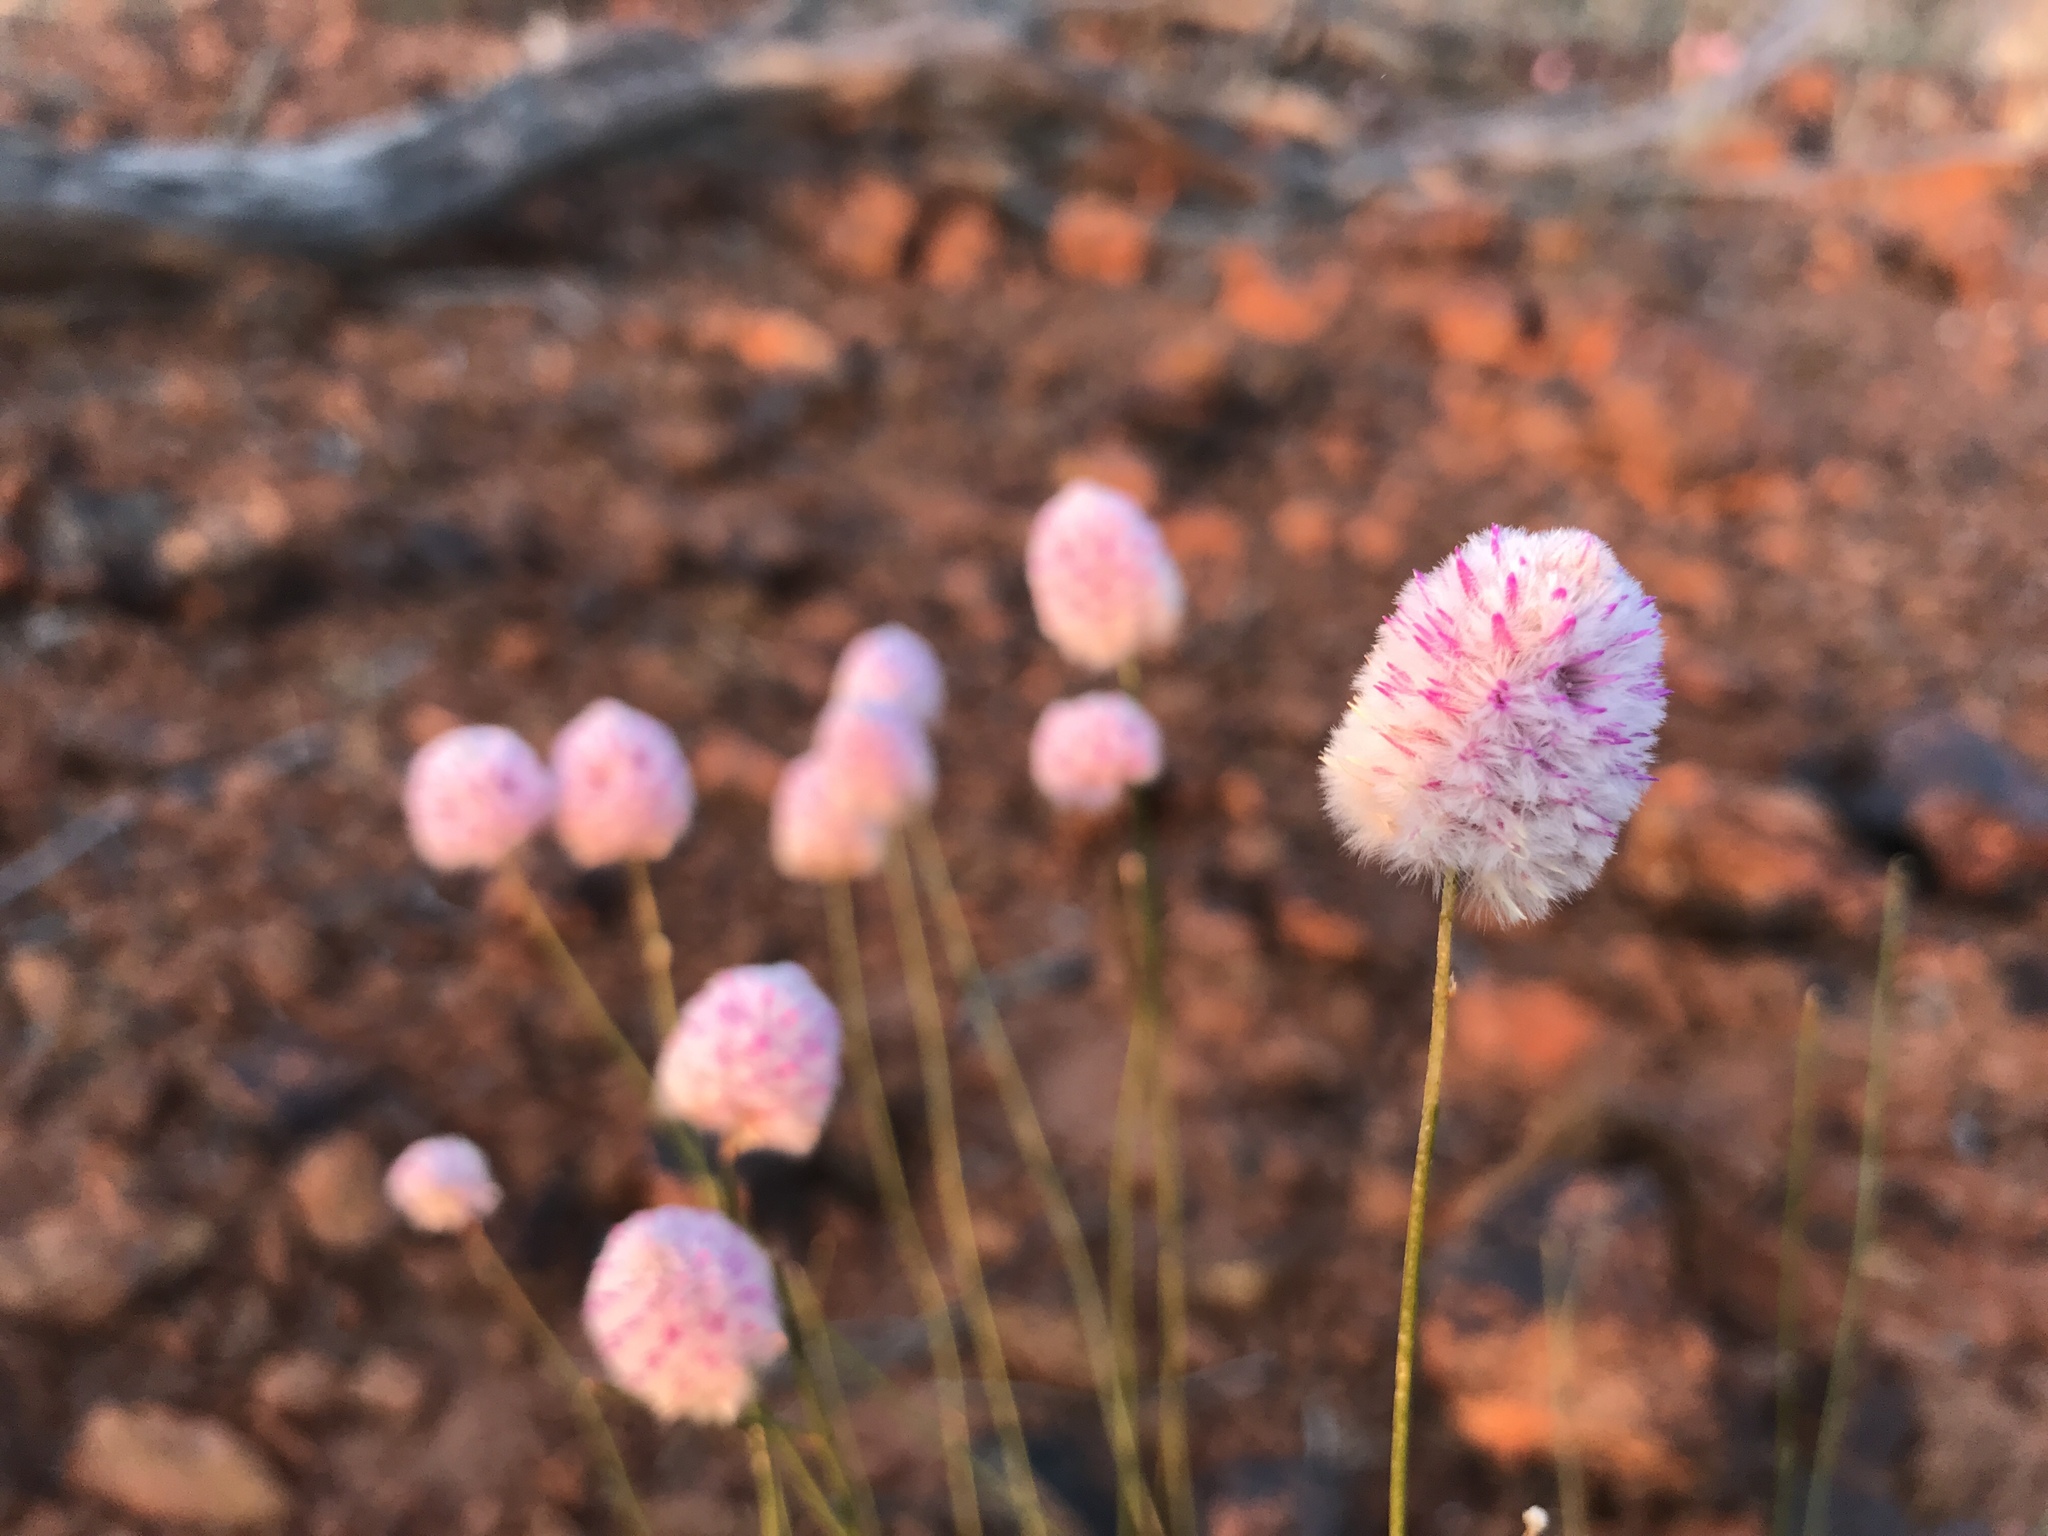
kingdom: Plantae
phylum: Tracheophyta
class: Magnoliopsida
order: Caryophyllales
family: Amaranthaceae
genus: Ptilotus
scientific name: Ptilotus schwartzii
